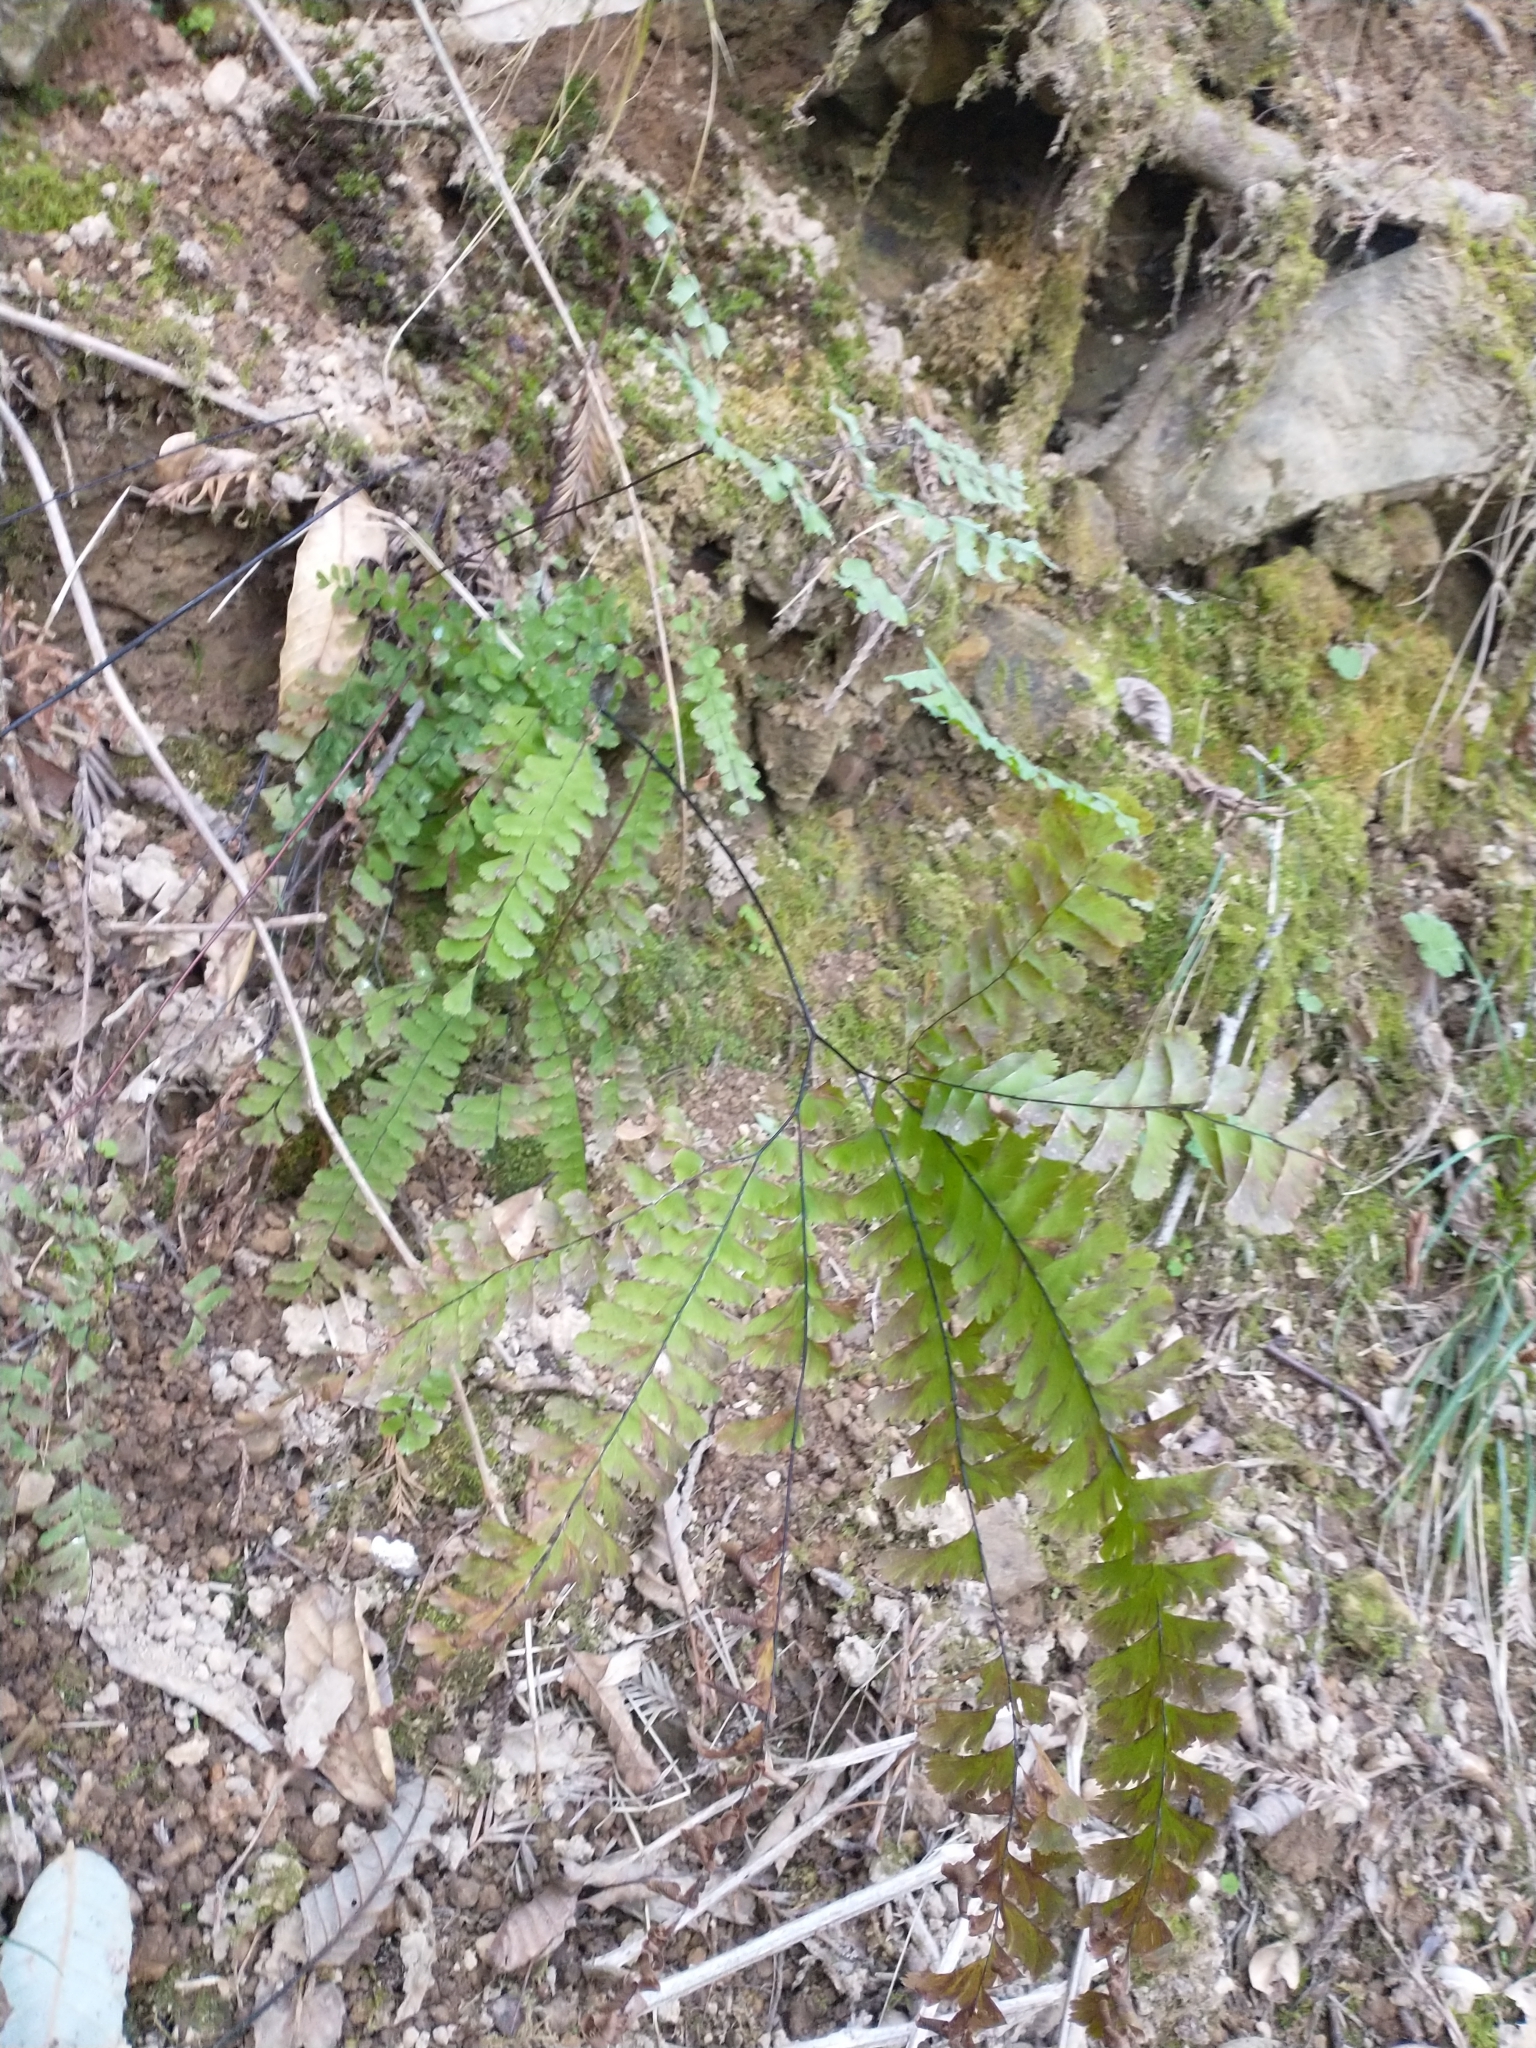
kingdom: Plantae
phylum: Tracheophyta
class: Polypodiopsida
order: Polypodiales
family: Pteridaceae
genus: Adiantum
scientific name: Adiantum aleuticum
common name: Aleutian maidenhair fern
